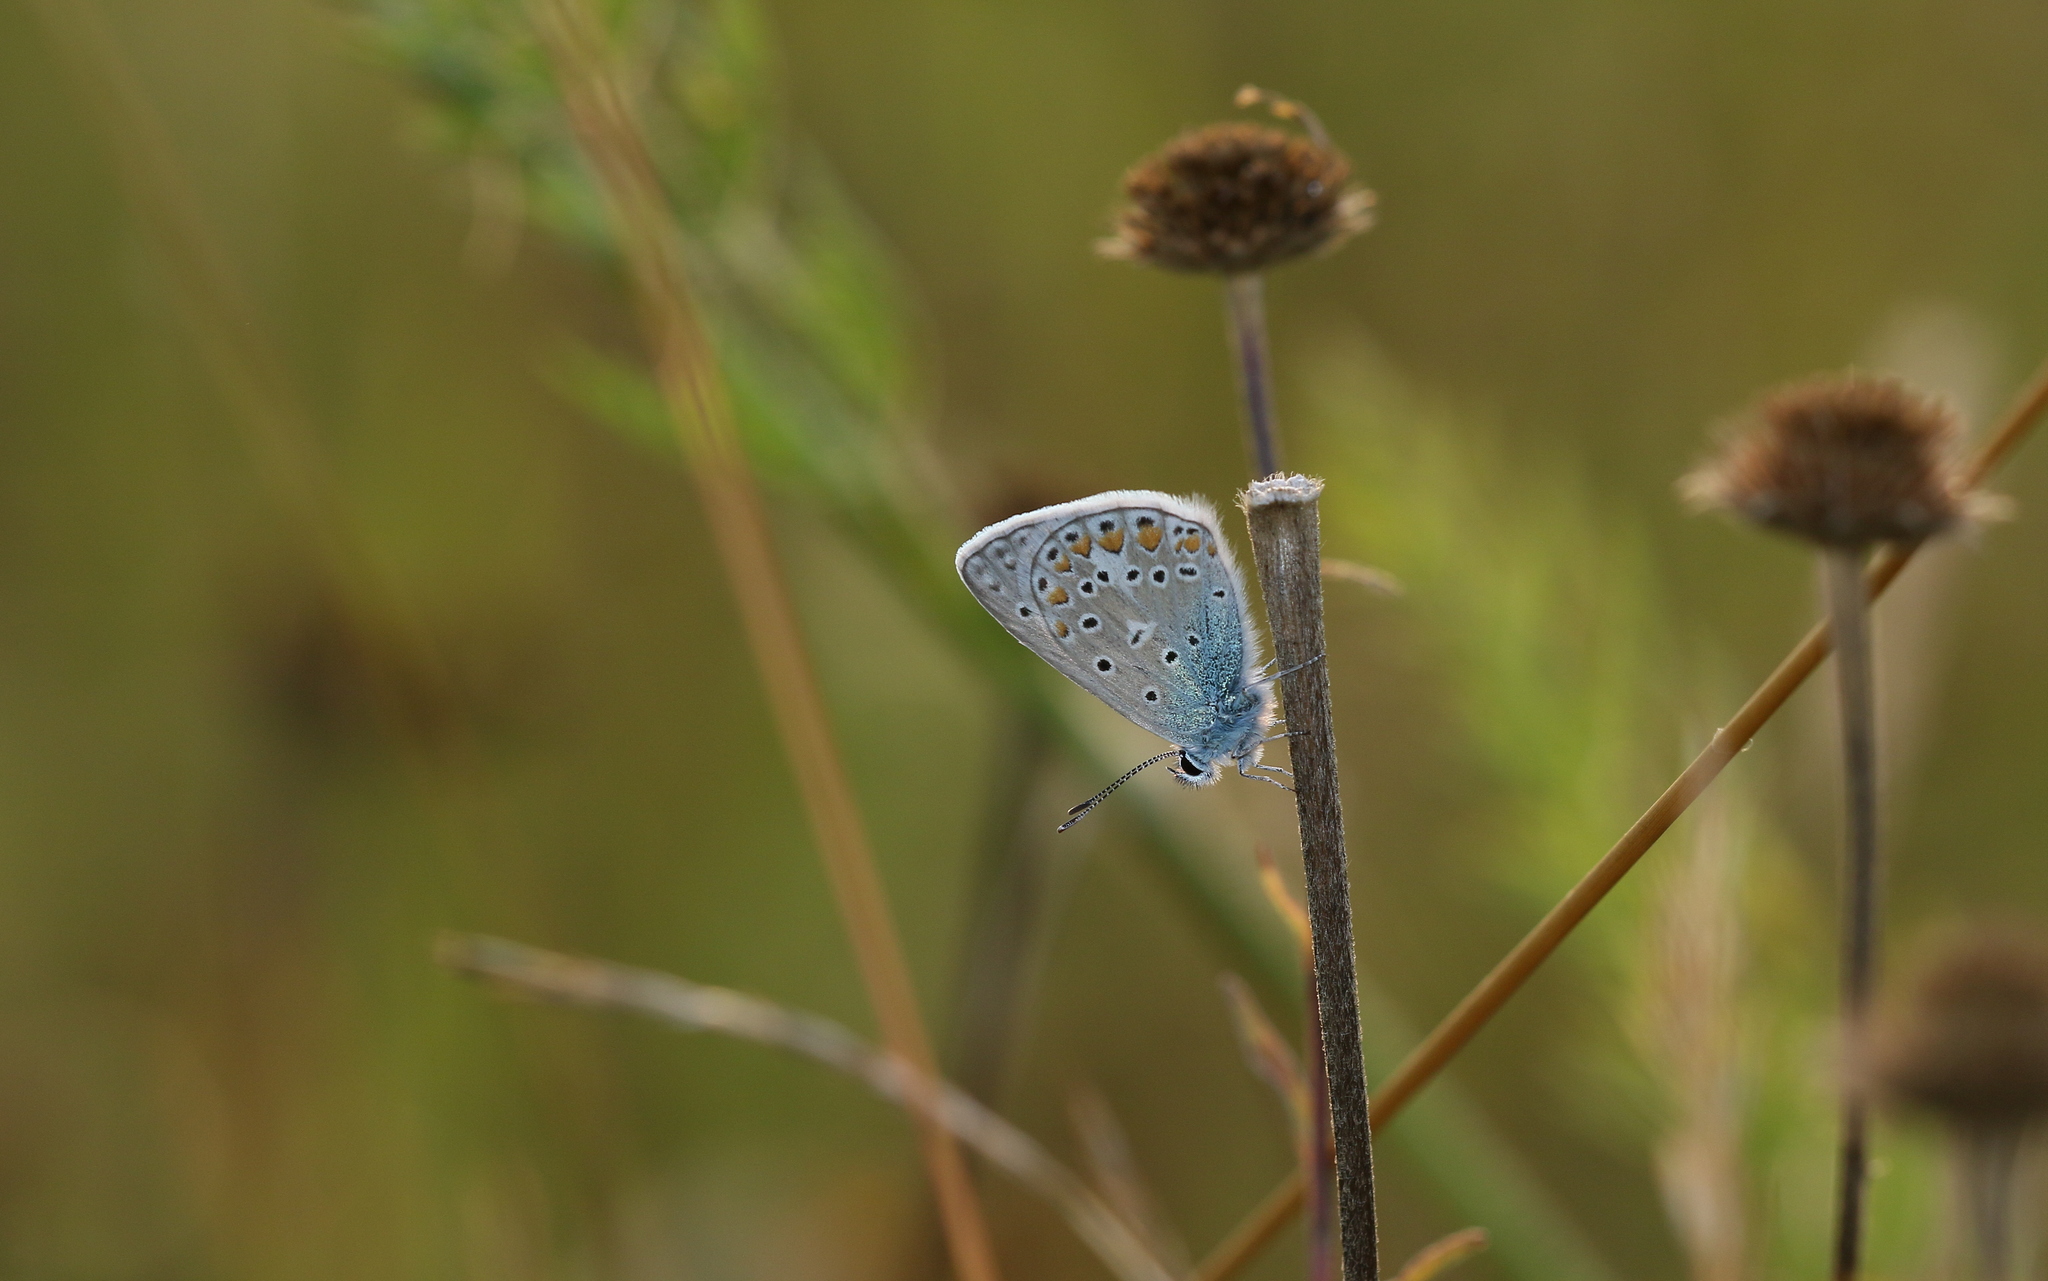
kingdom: Animalia
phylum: Arthropoda
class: Insecta
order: Lepidoptera
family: Lycaenidae
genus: Polyommatus
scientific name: Polyommatus icarus
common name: Common blue
